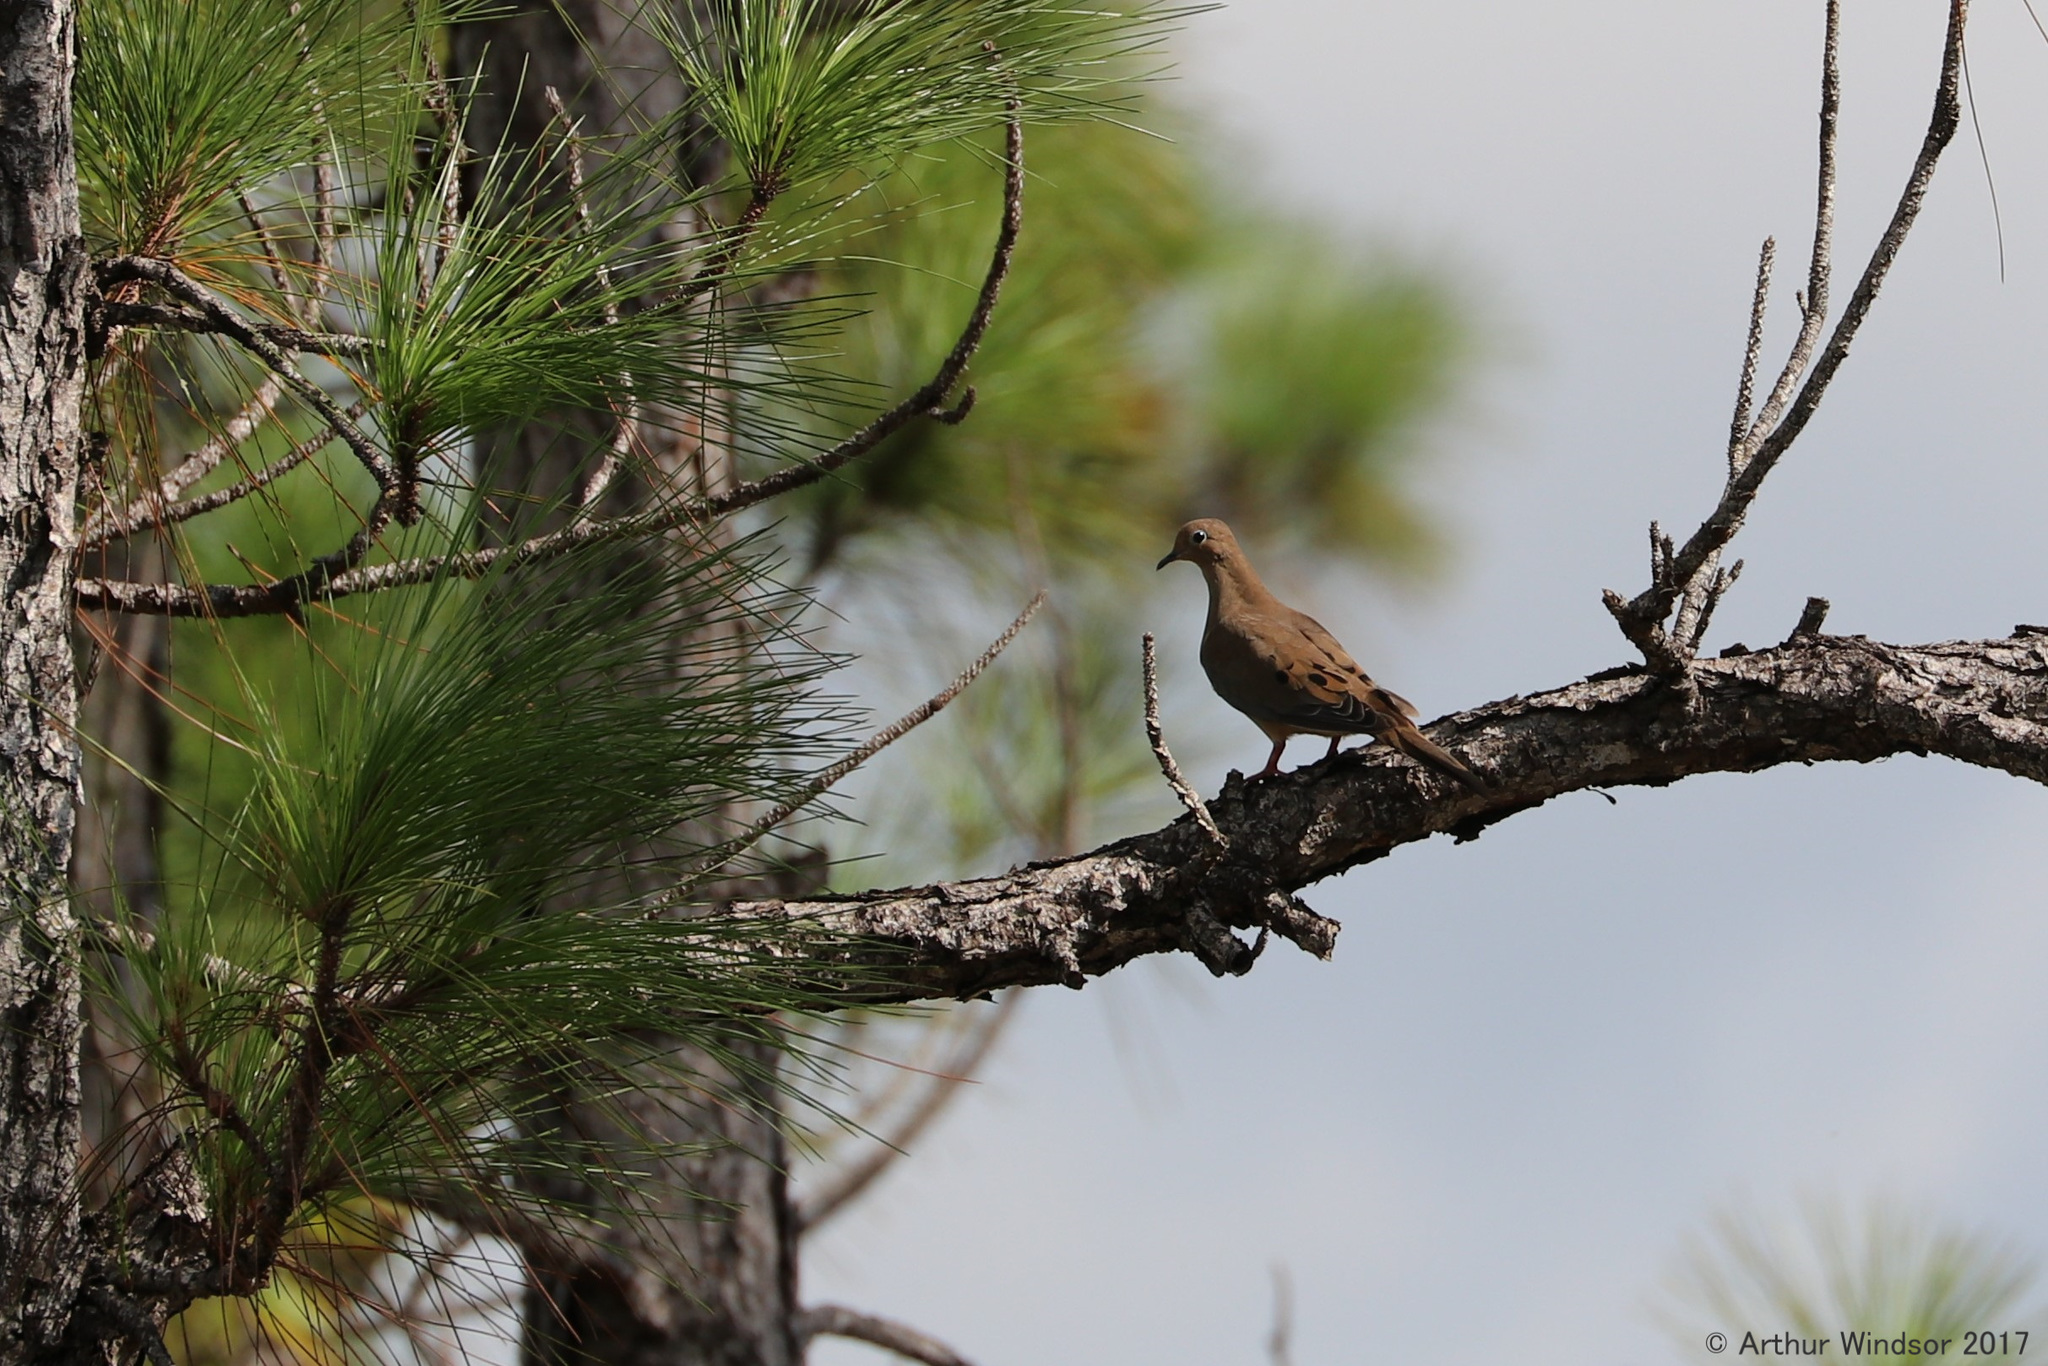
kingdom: Animalia
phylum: Chordata
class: Aves
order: Columbiformes
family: Columbidae
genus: Zenaida
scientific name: Zenaida macroura
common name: Mourning dove
